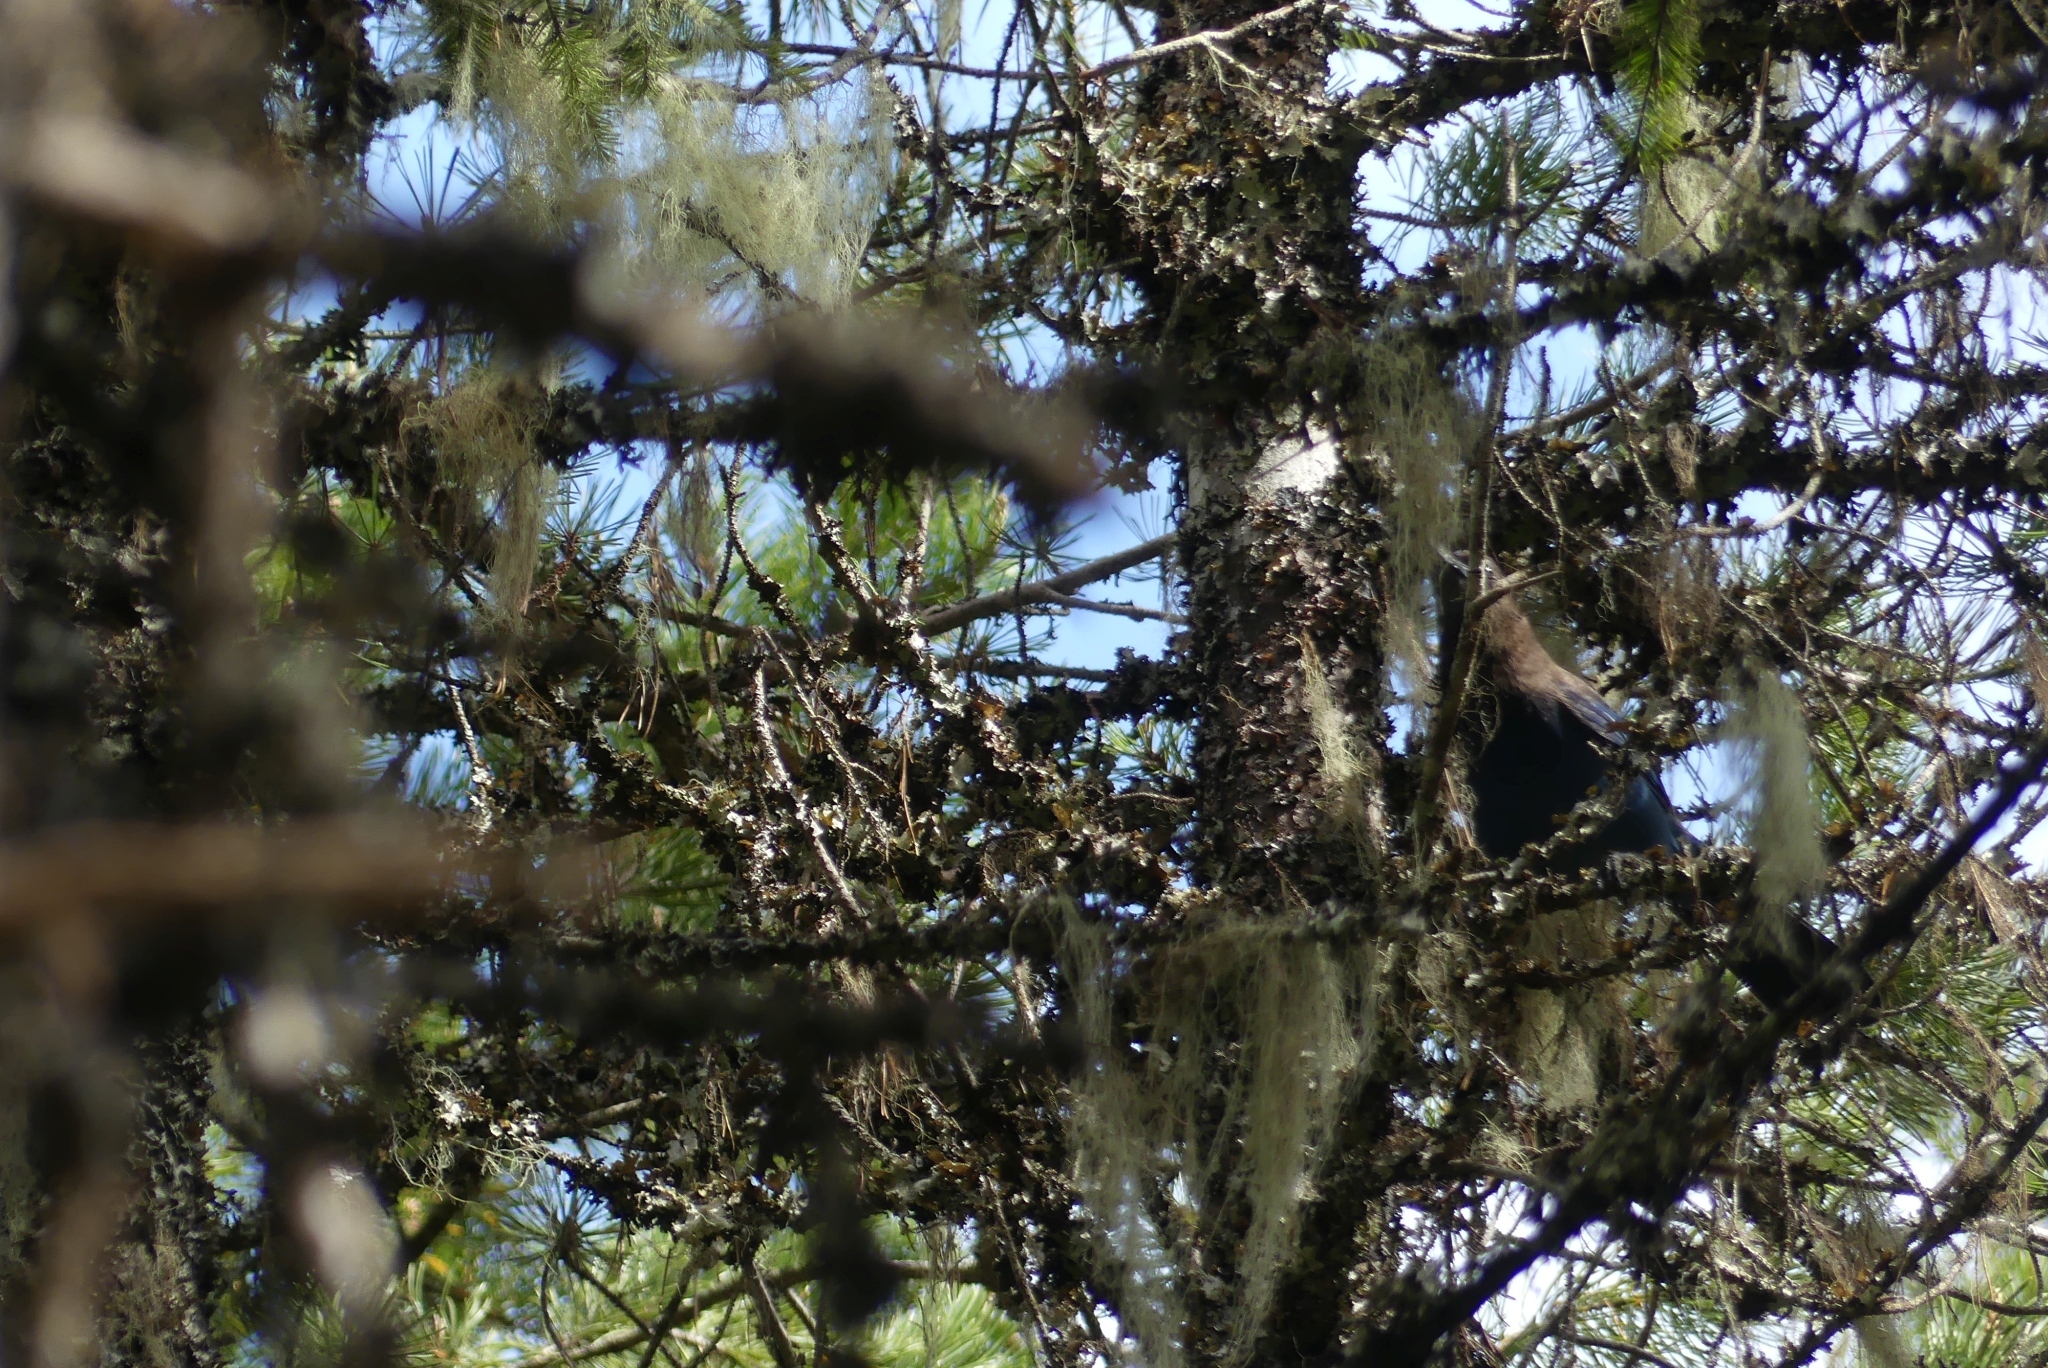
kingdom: Animalia
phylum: Chordata
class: Aves
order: Passeriformes
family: Corvidae
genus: Cyanocitta
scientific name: Cyanocitta stelleri
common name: Steller's jay
